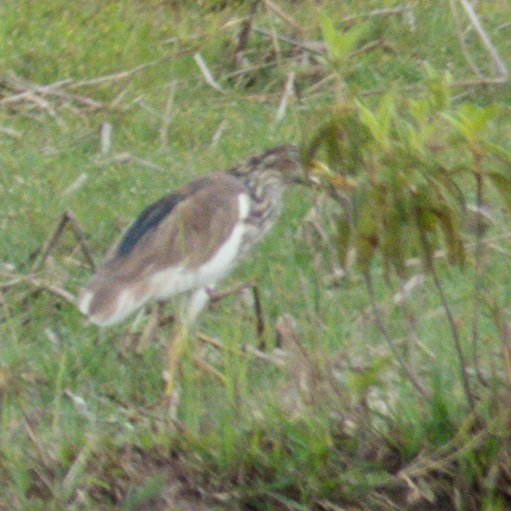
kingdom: Animalia
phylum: Chordata
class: Aves
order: Pelecaniformes
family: Ardeidae
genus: Ardeola
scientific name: Ardeola bacchus
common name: Chinese pond heron
